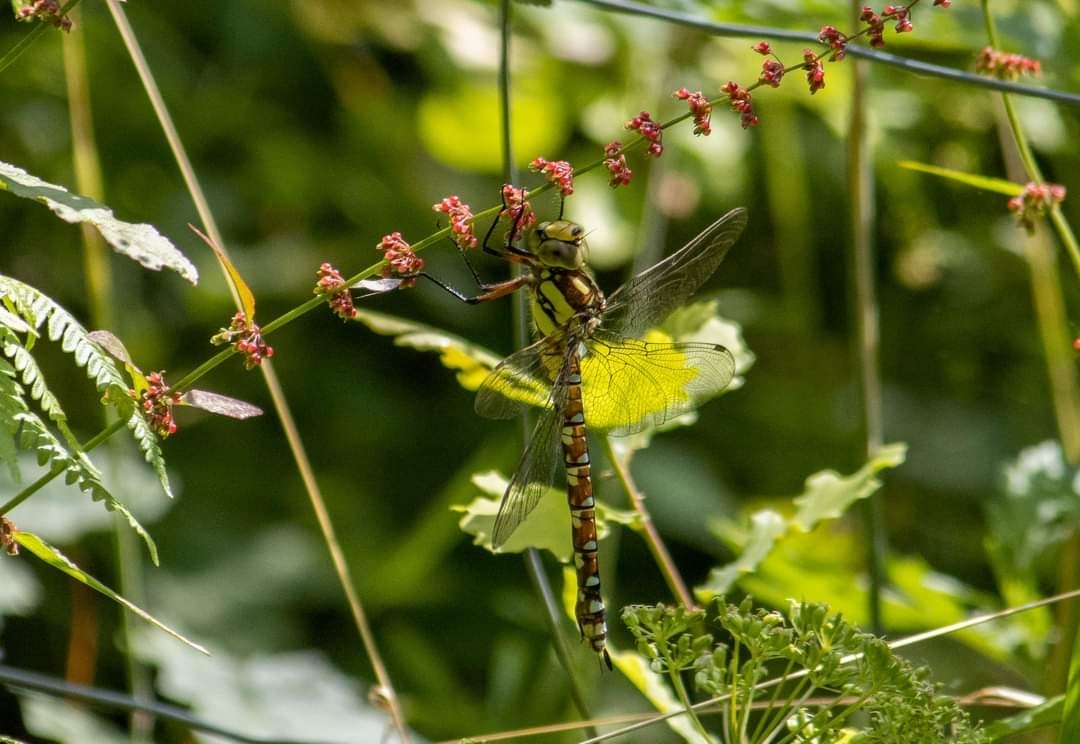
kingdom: Animalia
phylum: Arthropoda
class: Insecta
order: Odonata
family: Aeshnidae
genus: Aeshna
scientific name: Aeshna cyanea
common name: Southern hawker
